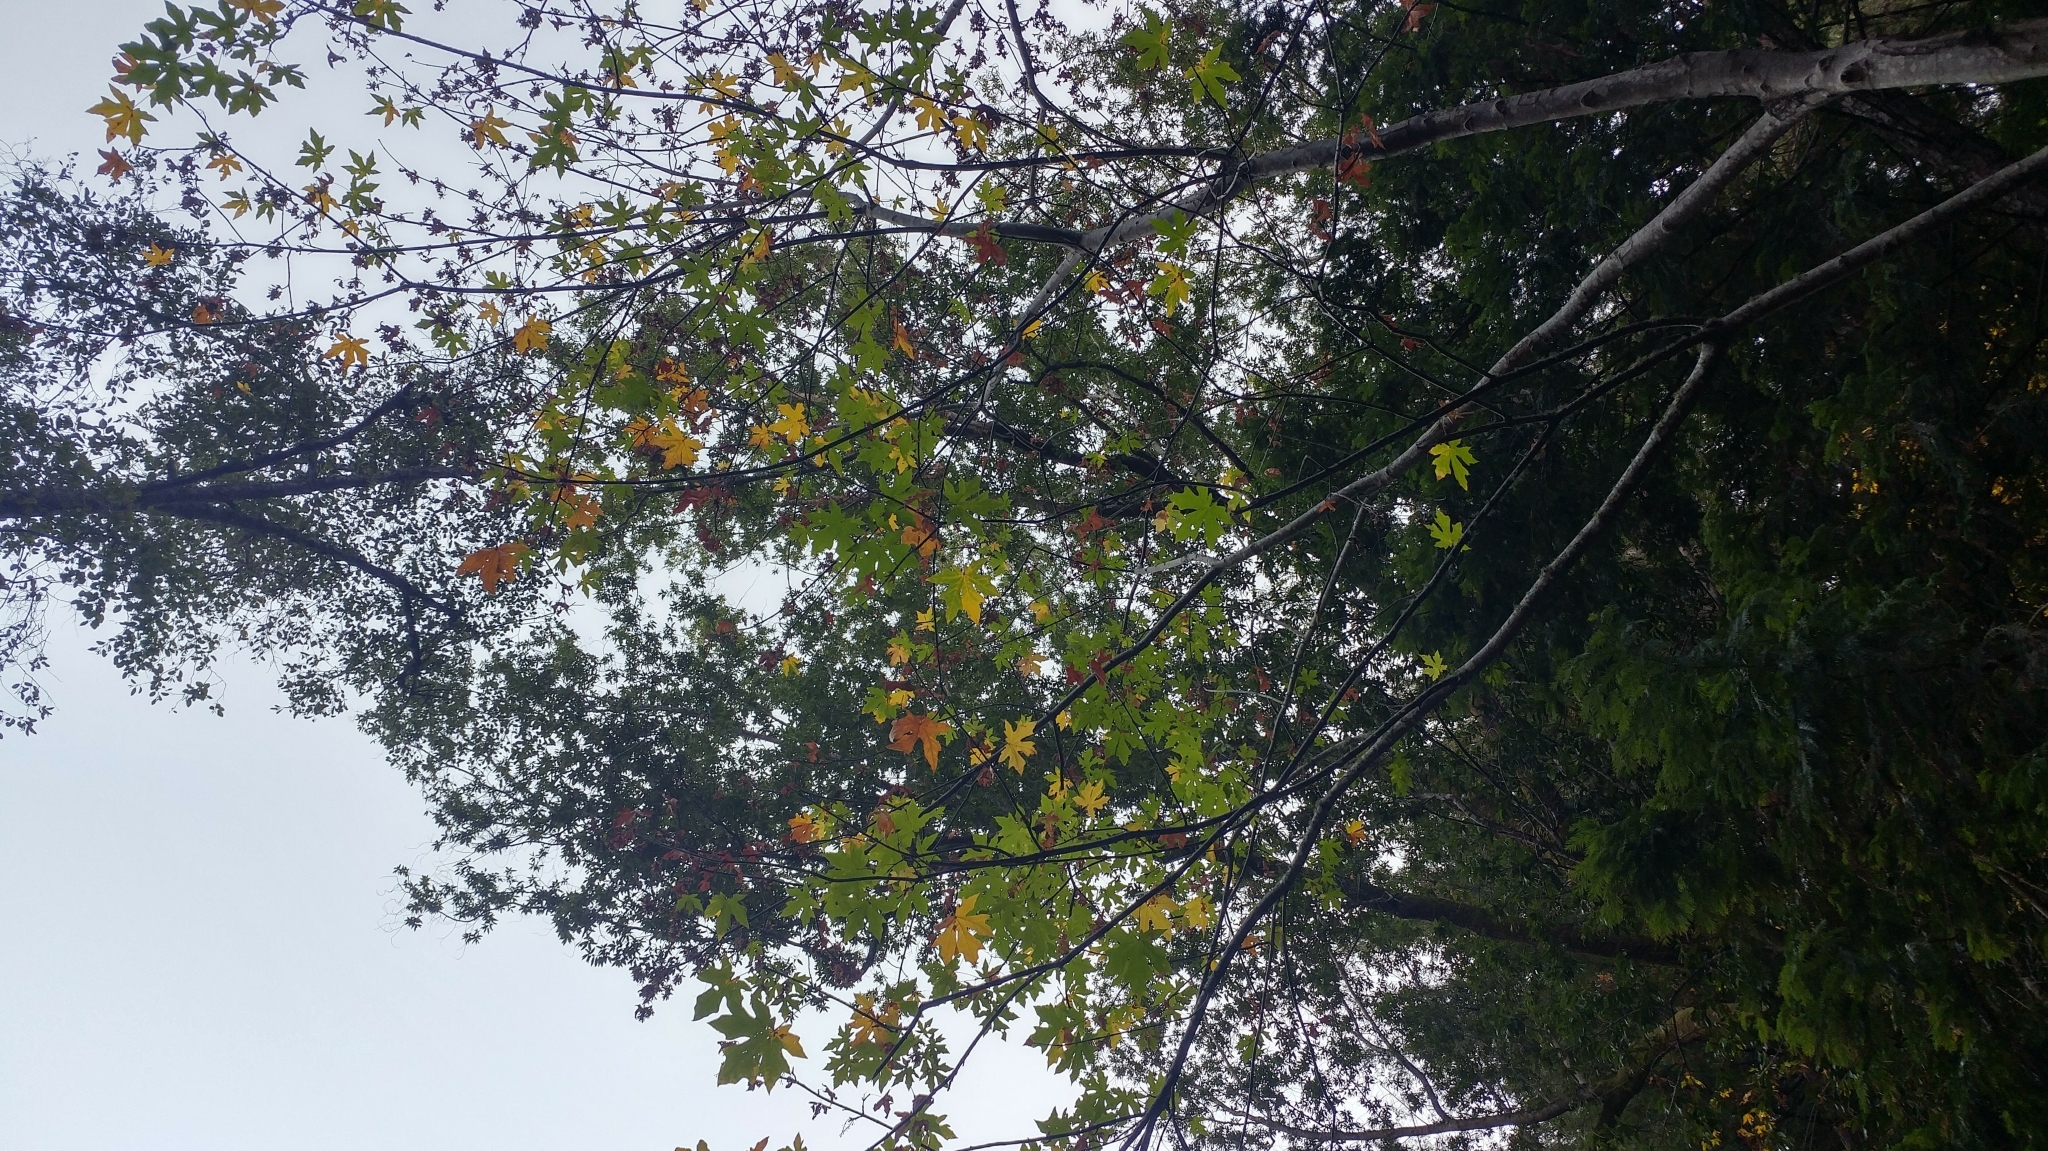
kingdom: Plantae
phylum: Tracheophyta
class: Magnoliopsida
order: Sapindales
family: Sapindaceae
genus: Acer
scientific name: Acer macrophyllum
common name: Oregon maple
